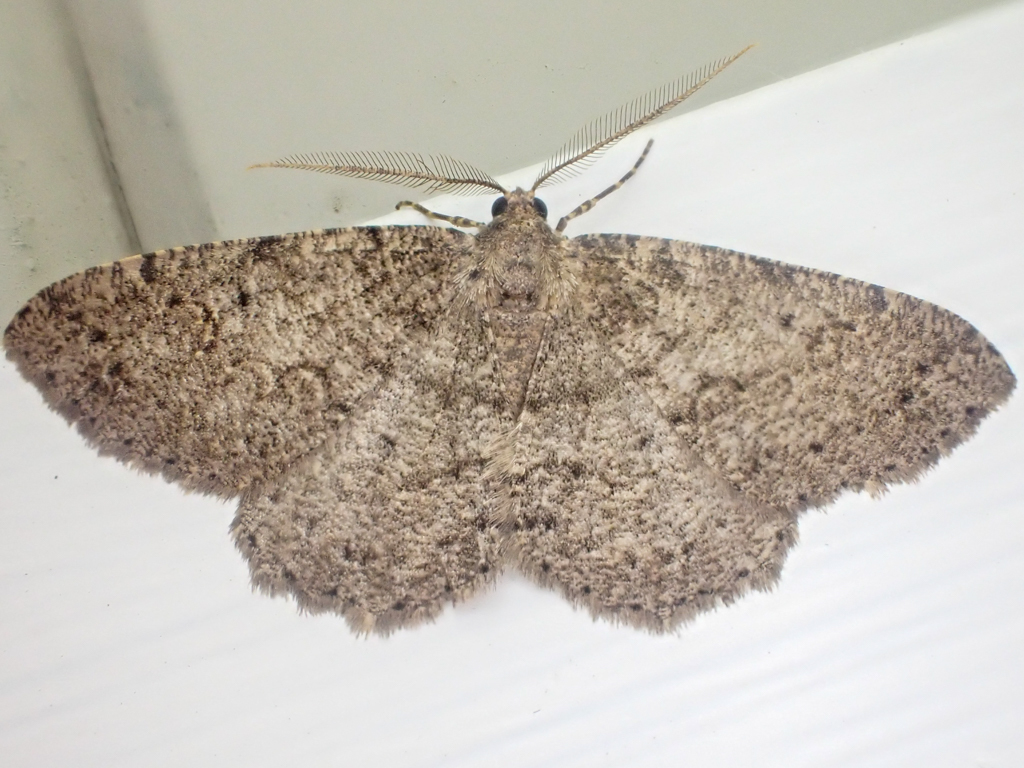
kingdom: Animalia
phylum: Arthropoda
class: Insecta
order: Lepidoptera
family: Geometridae
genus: Melanolophia
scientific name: Melanolophia imitata
